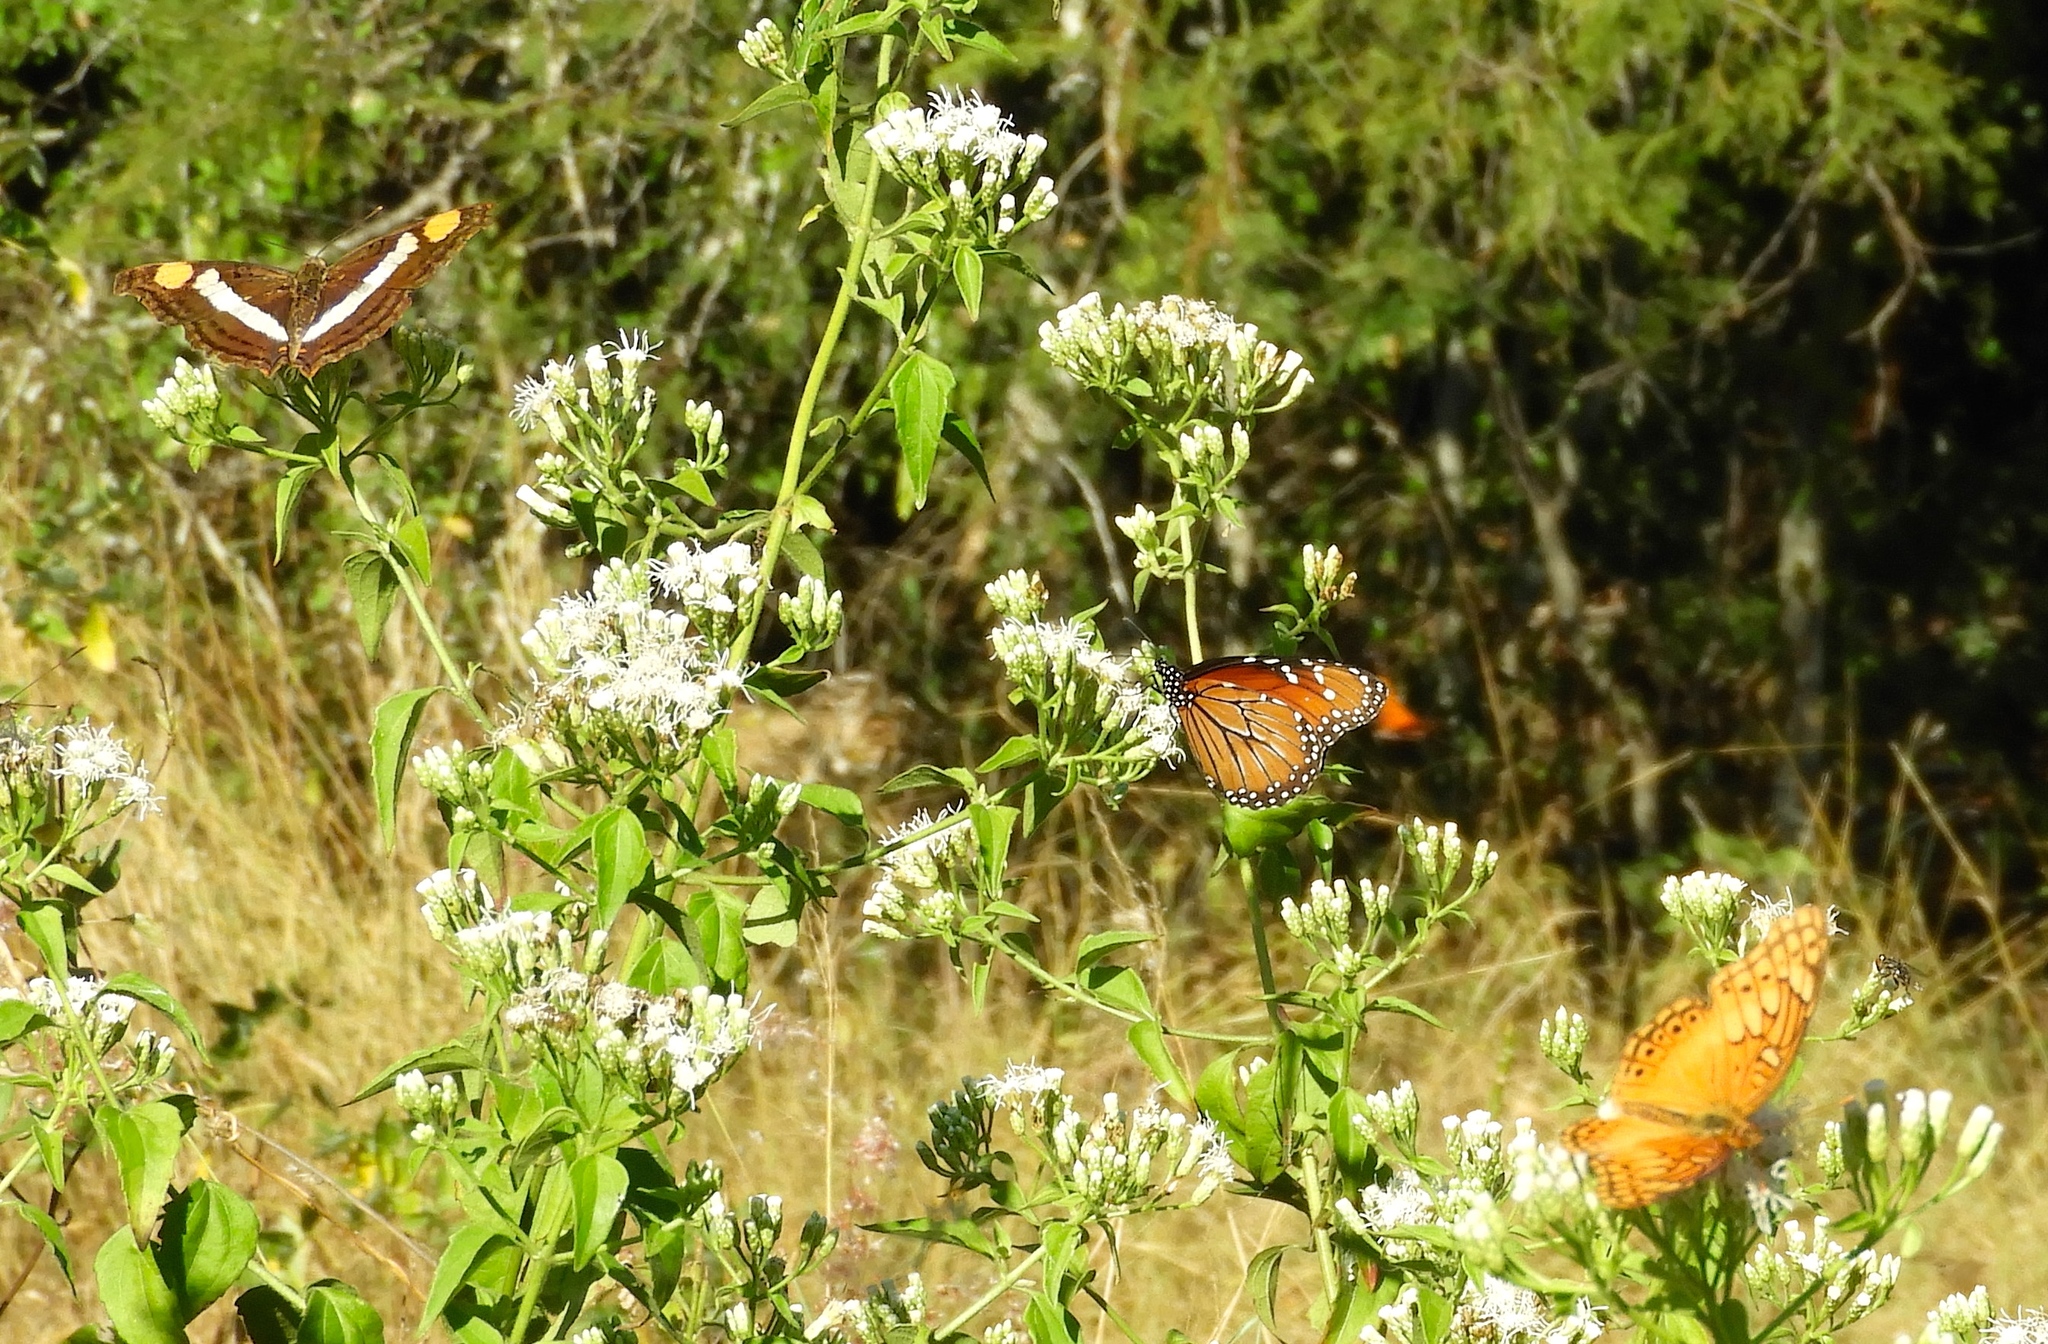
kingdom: Animalia
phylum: Arthropoda
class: Insecta
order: Lepidoptera
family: Nymphalidae
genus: Euptoieta
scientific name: Euptoieta hegesia
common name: Mexican fritillary
